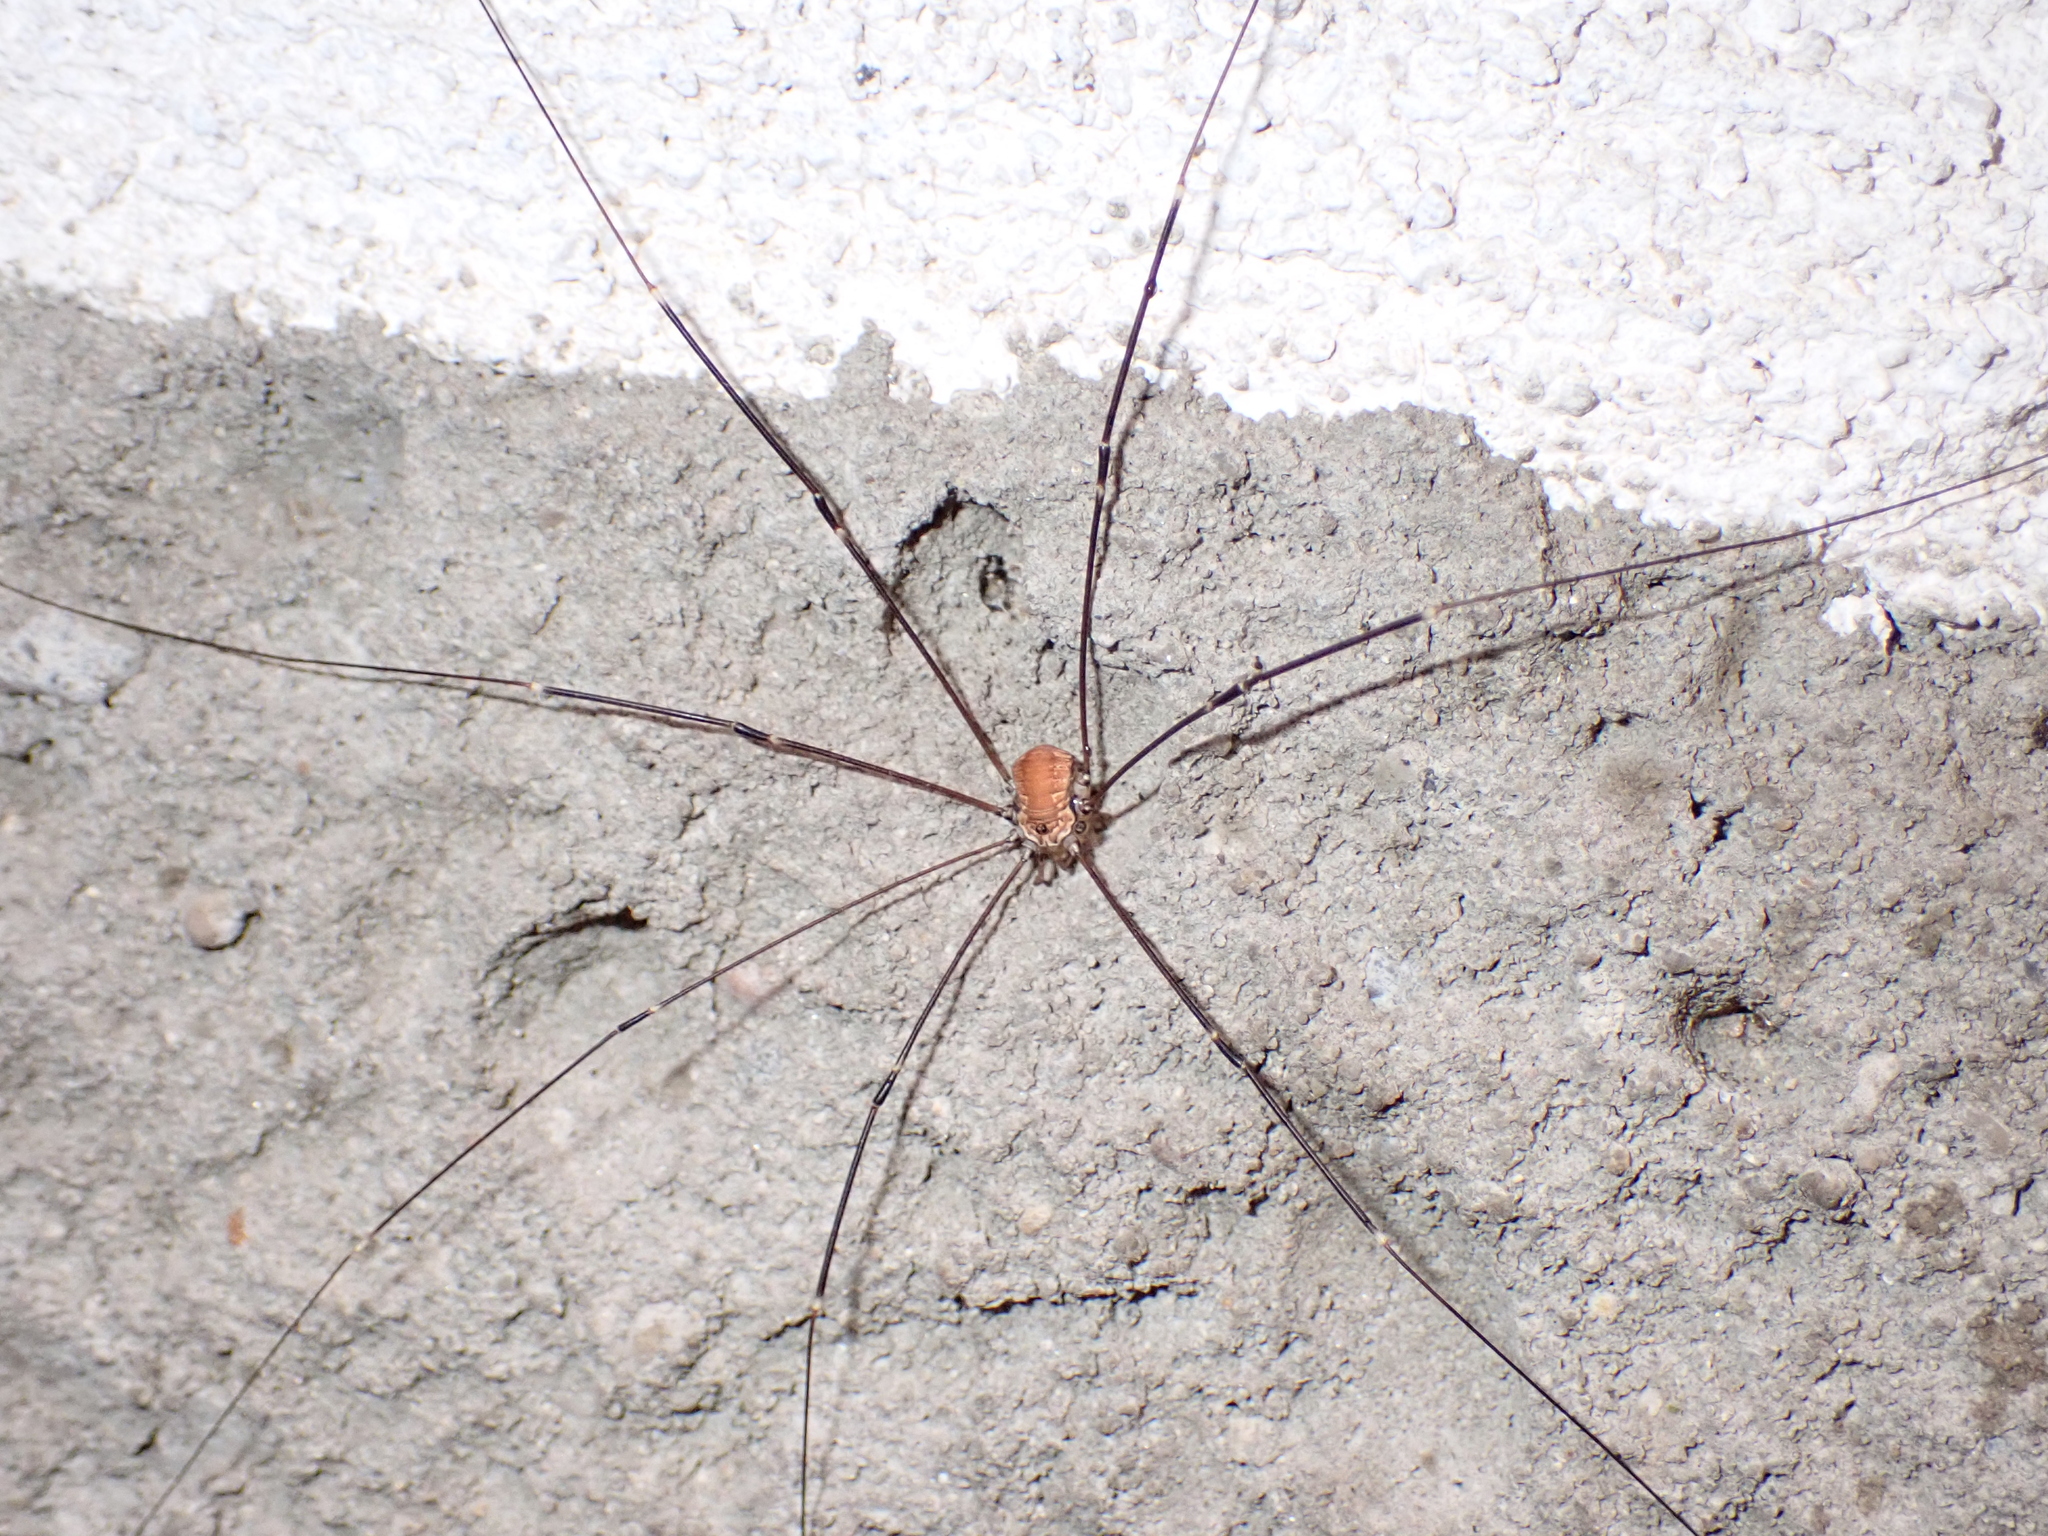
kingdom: Animalia
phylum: Arthropoda
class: Arachnida
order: Opiliones
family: Sclerosomatidae
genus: Leiobunum
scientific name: Leiobunum limbatum
